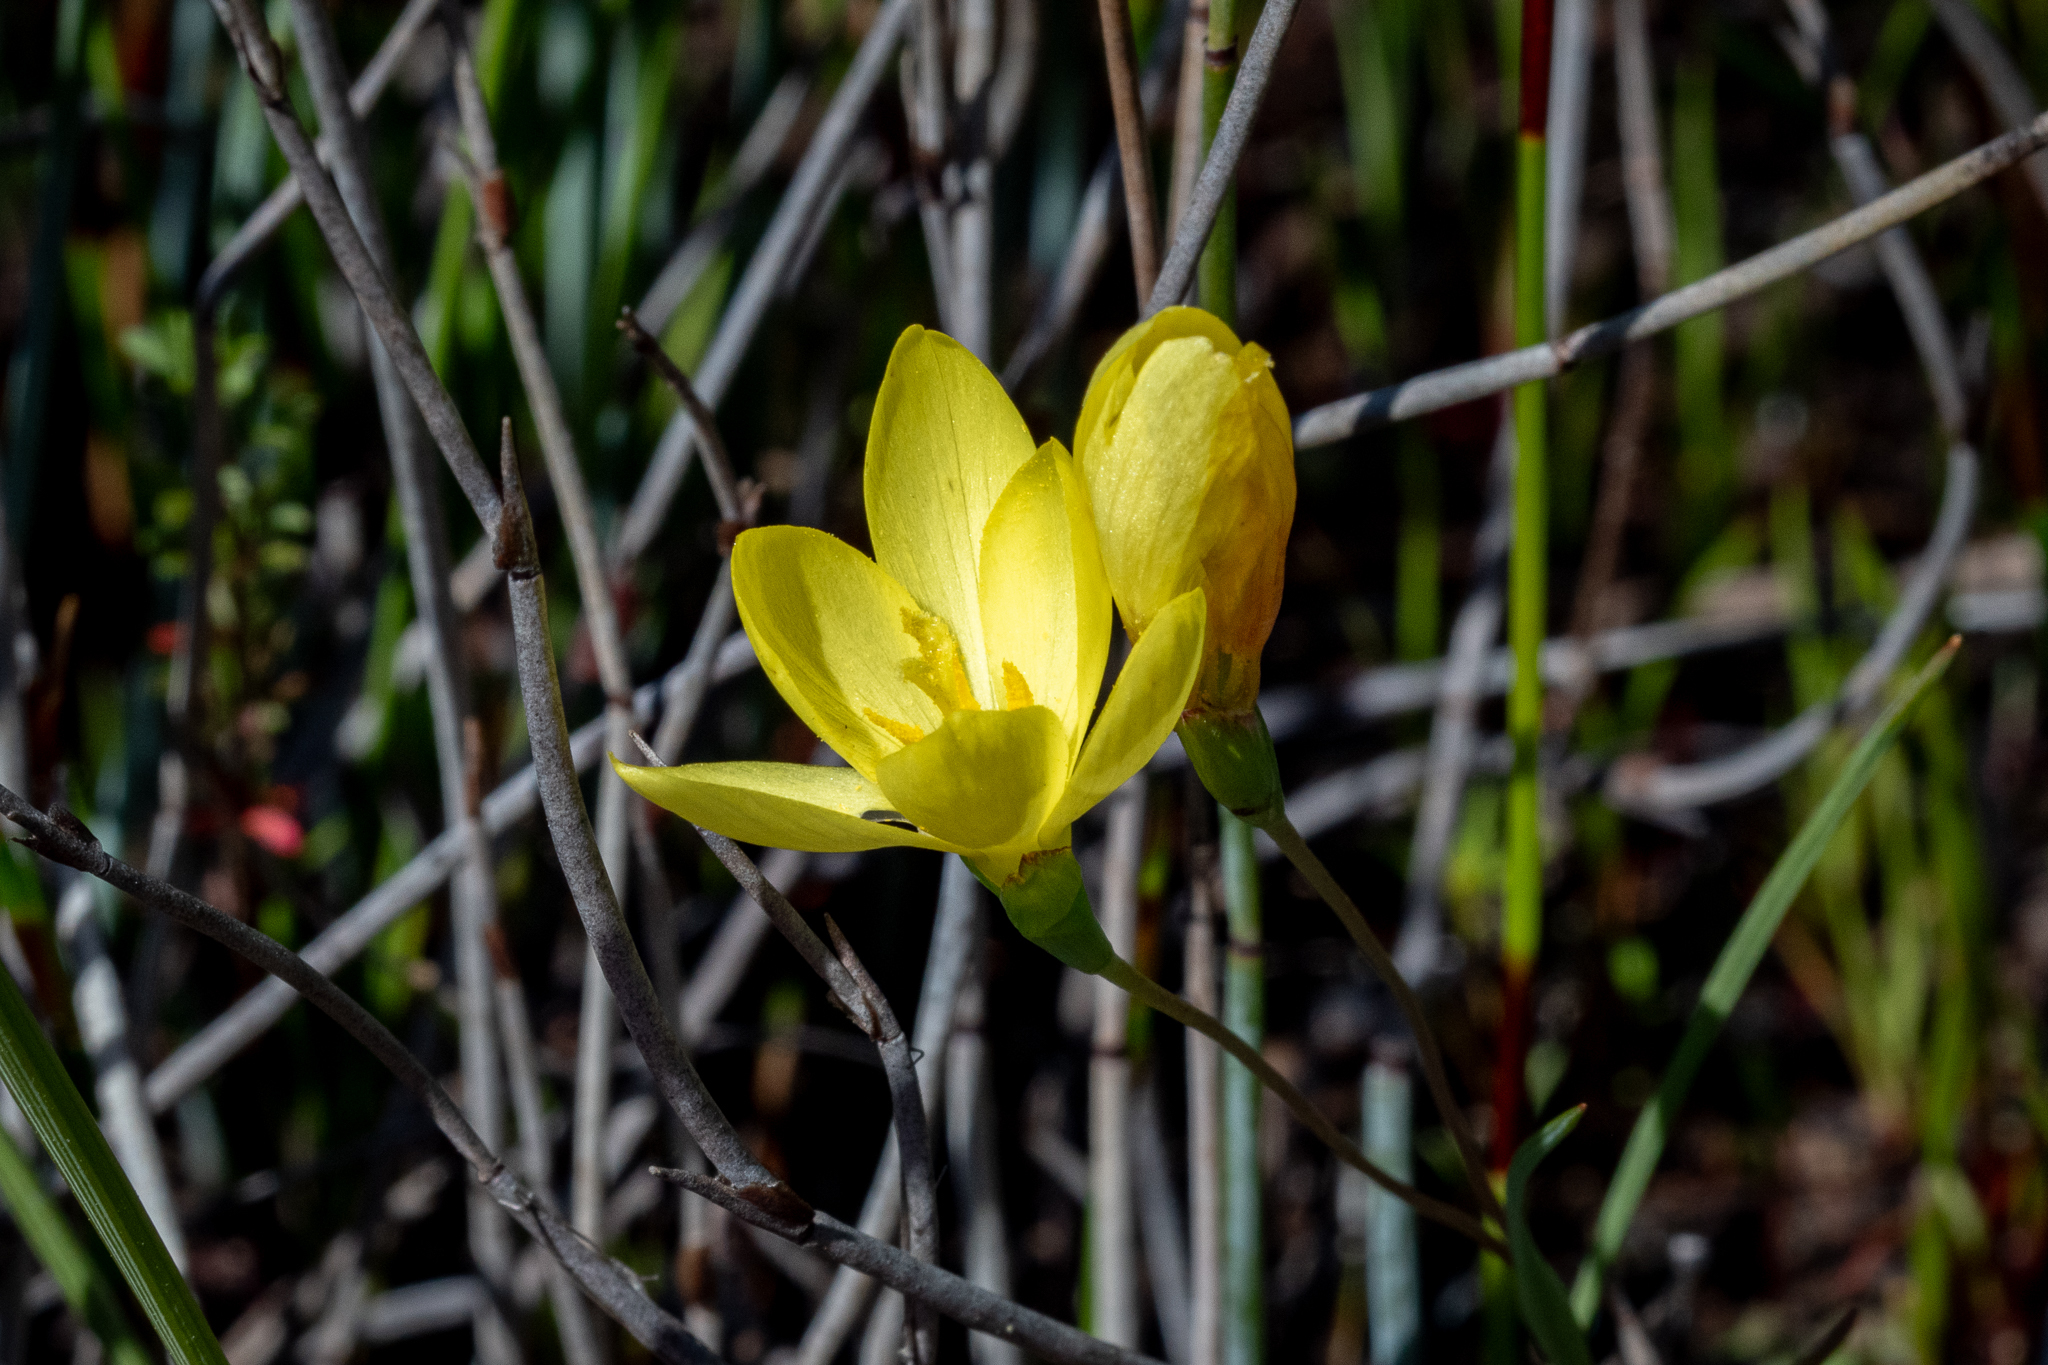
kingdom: Plantae
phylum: Tracheophyta
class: Liliopsida
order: Asparagales
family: Iridaceae
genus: Geissorhiza
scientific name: Geissorhiza ornithogaloides
